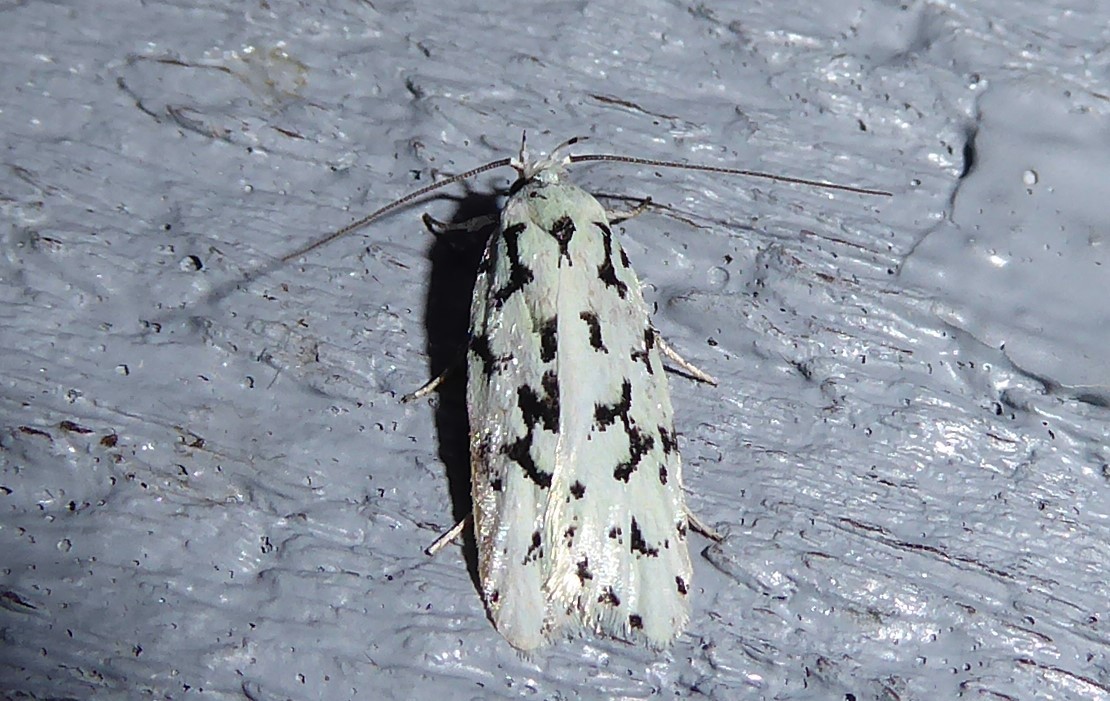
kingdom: Animalia
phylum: Arthropoda
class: Insecta
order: Lepidoptera
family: Oecophoridae
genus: Izatha
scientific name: Izatha huttoni
